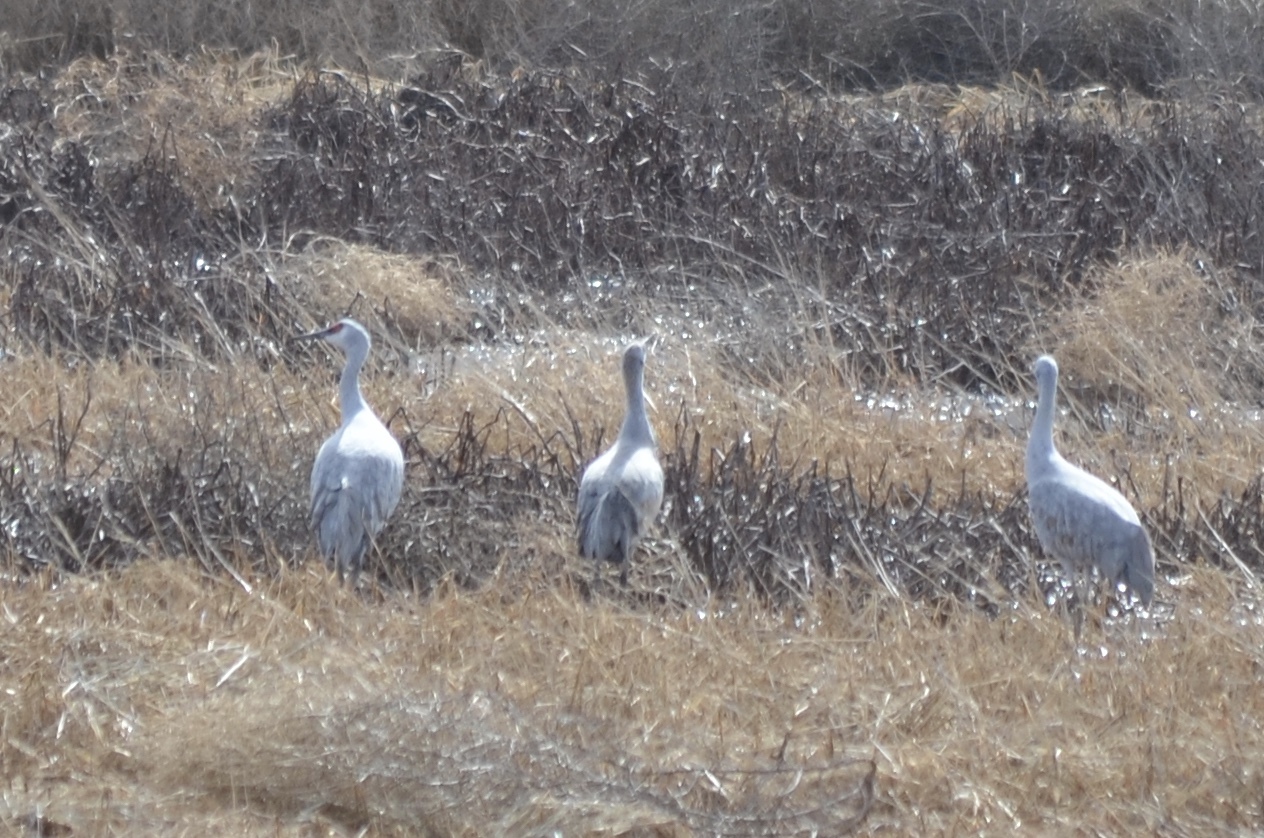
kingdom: Animalia
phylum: Chordata
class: Aves
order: Gruiformes
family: Gruidae
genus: Grus
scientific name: Grus canadensis
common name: Sandhill crane
